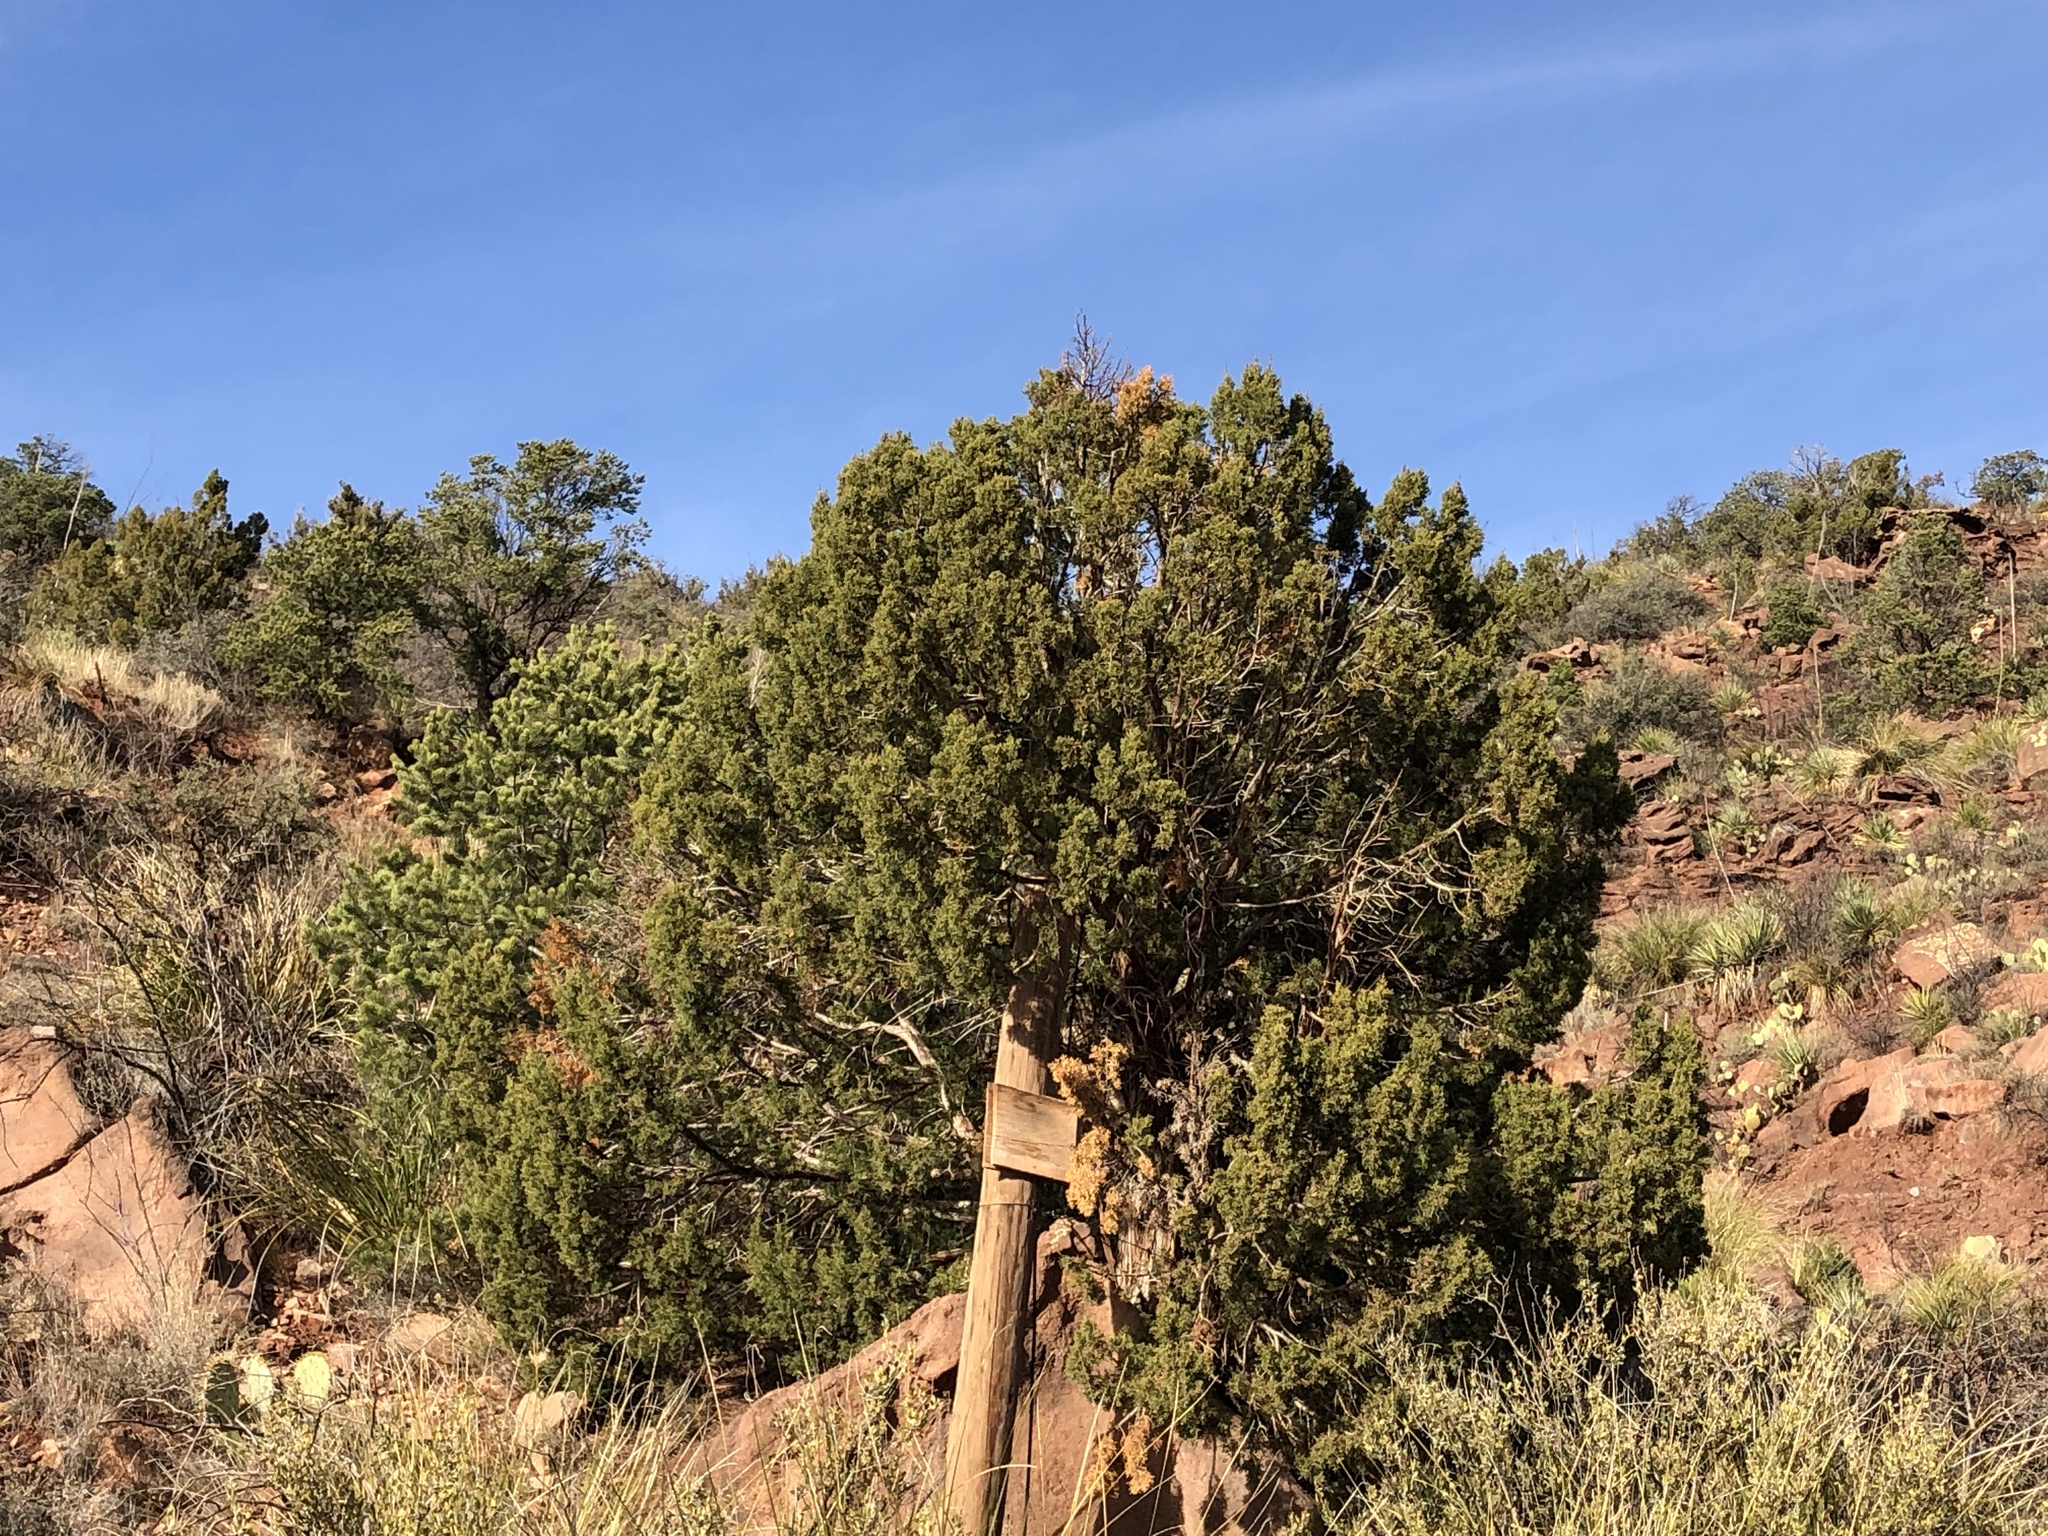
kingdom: Plantae
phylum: Tracheophyta
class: Pinopsida
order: Pinales
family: Cupressaceae
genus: Juniperus
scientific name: Juniperus monosperma
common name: One-seed juniper
